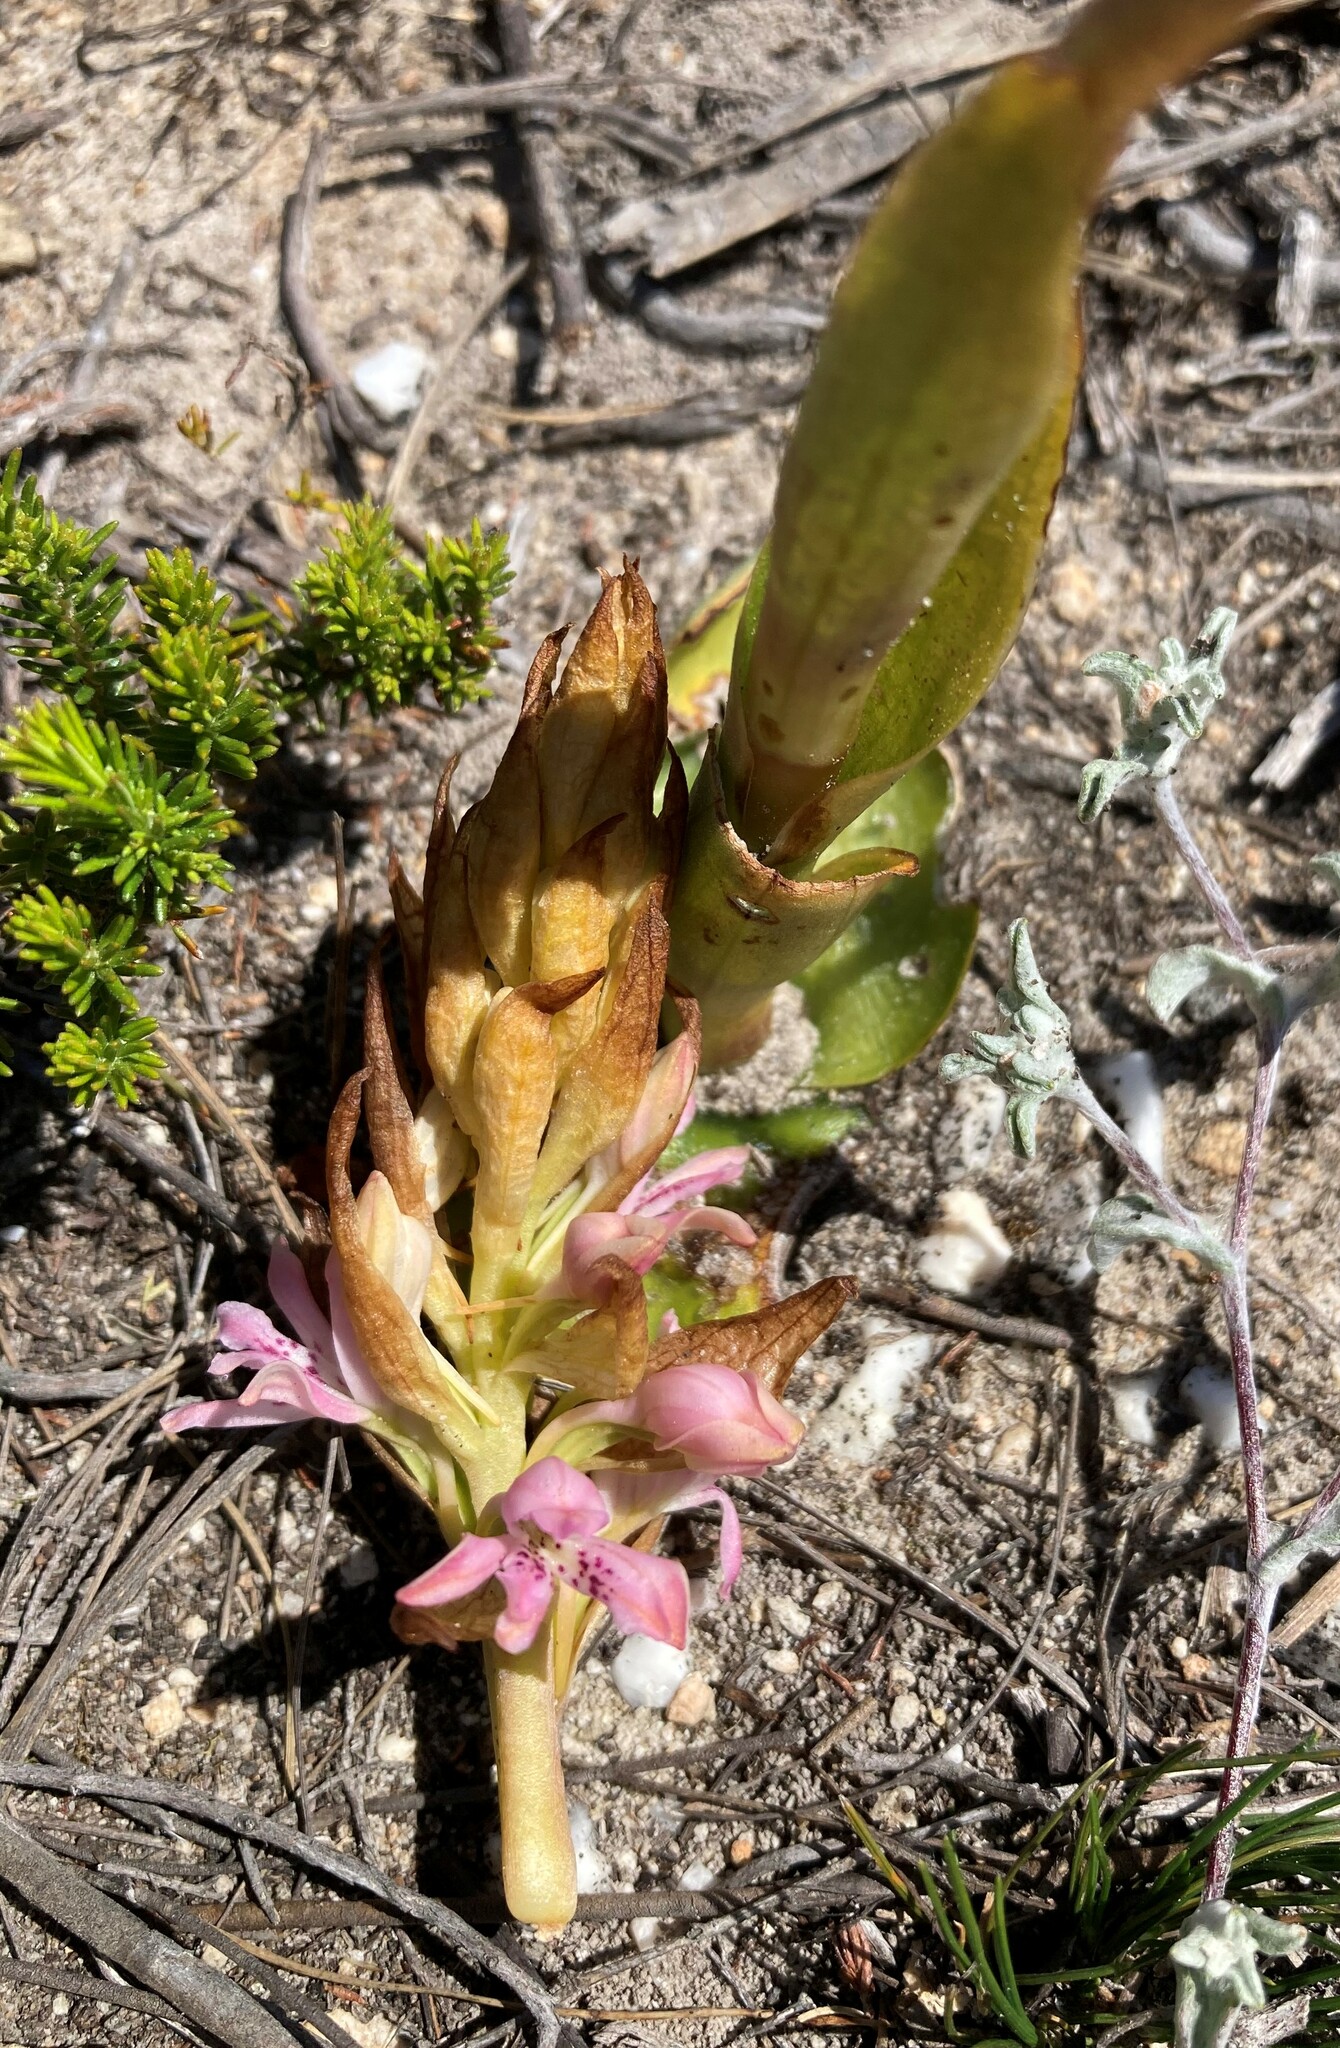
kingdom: Plantae
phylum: Tracheophyta
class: Liliopsida
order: Asparagales
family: Orchidaceae
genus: Satyrium
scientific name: Satyrium erectum
